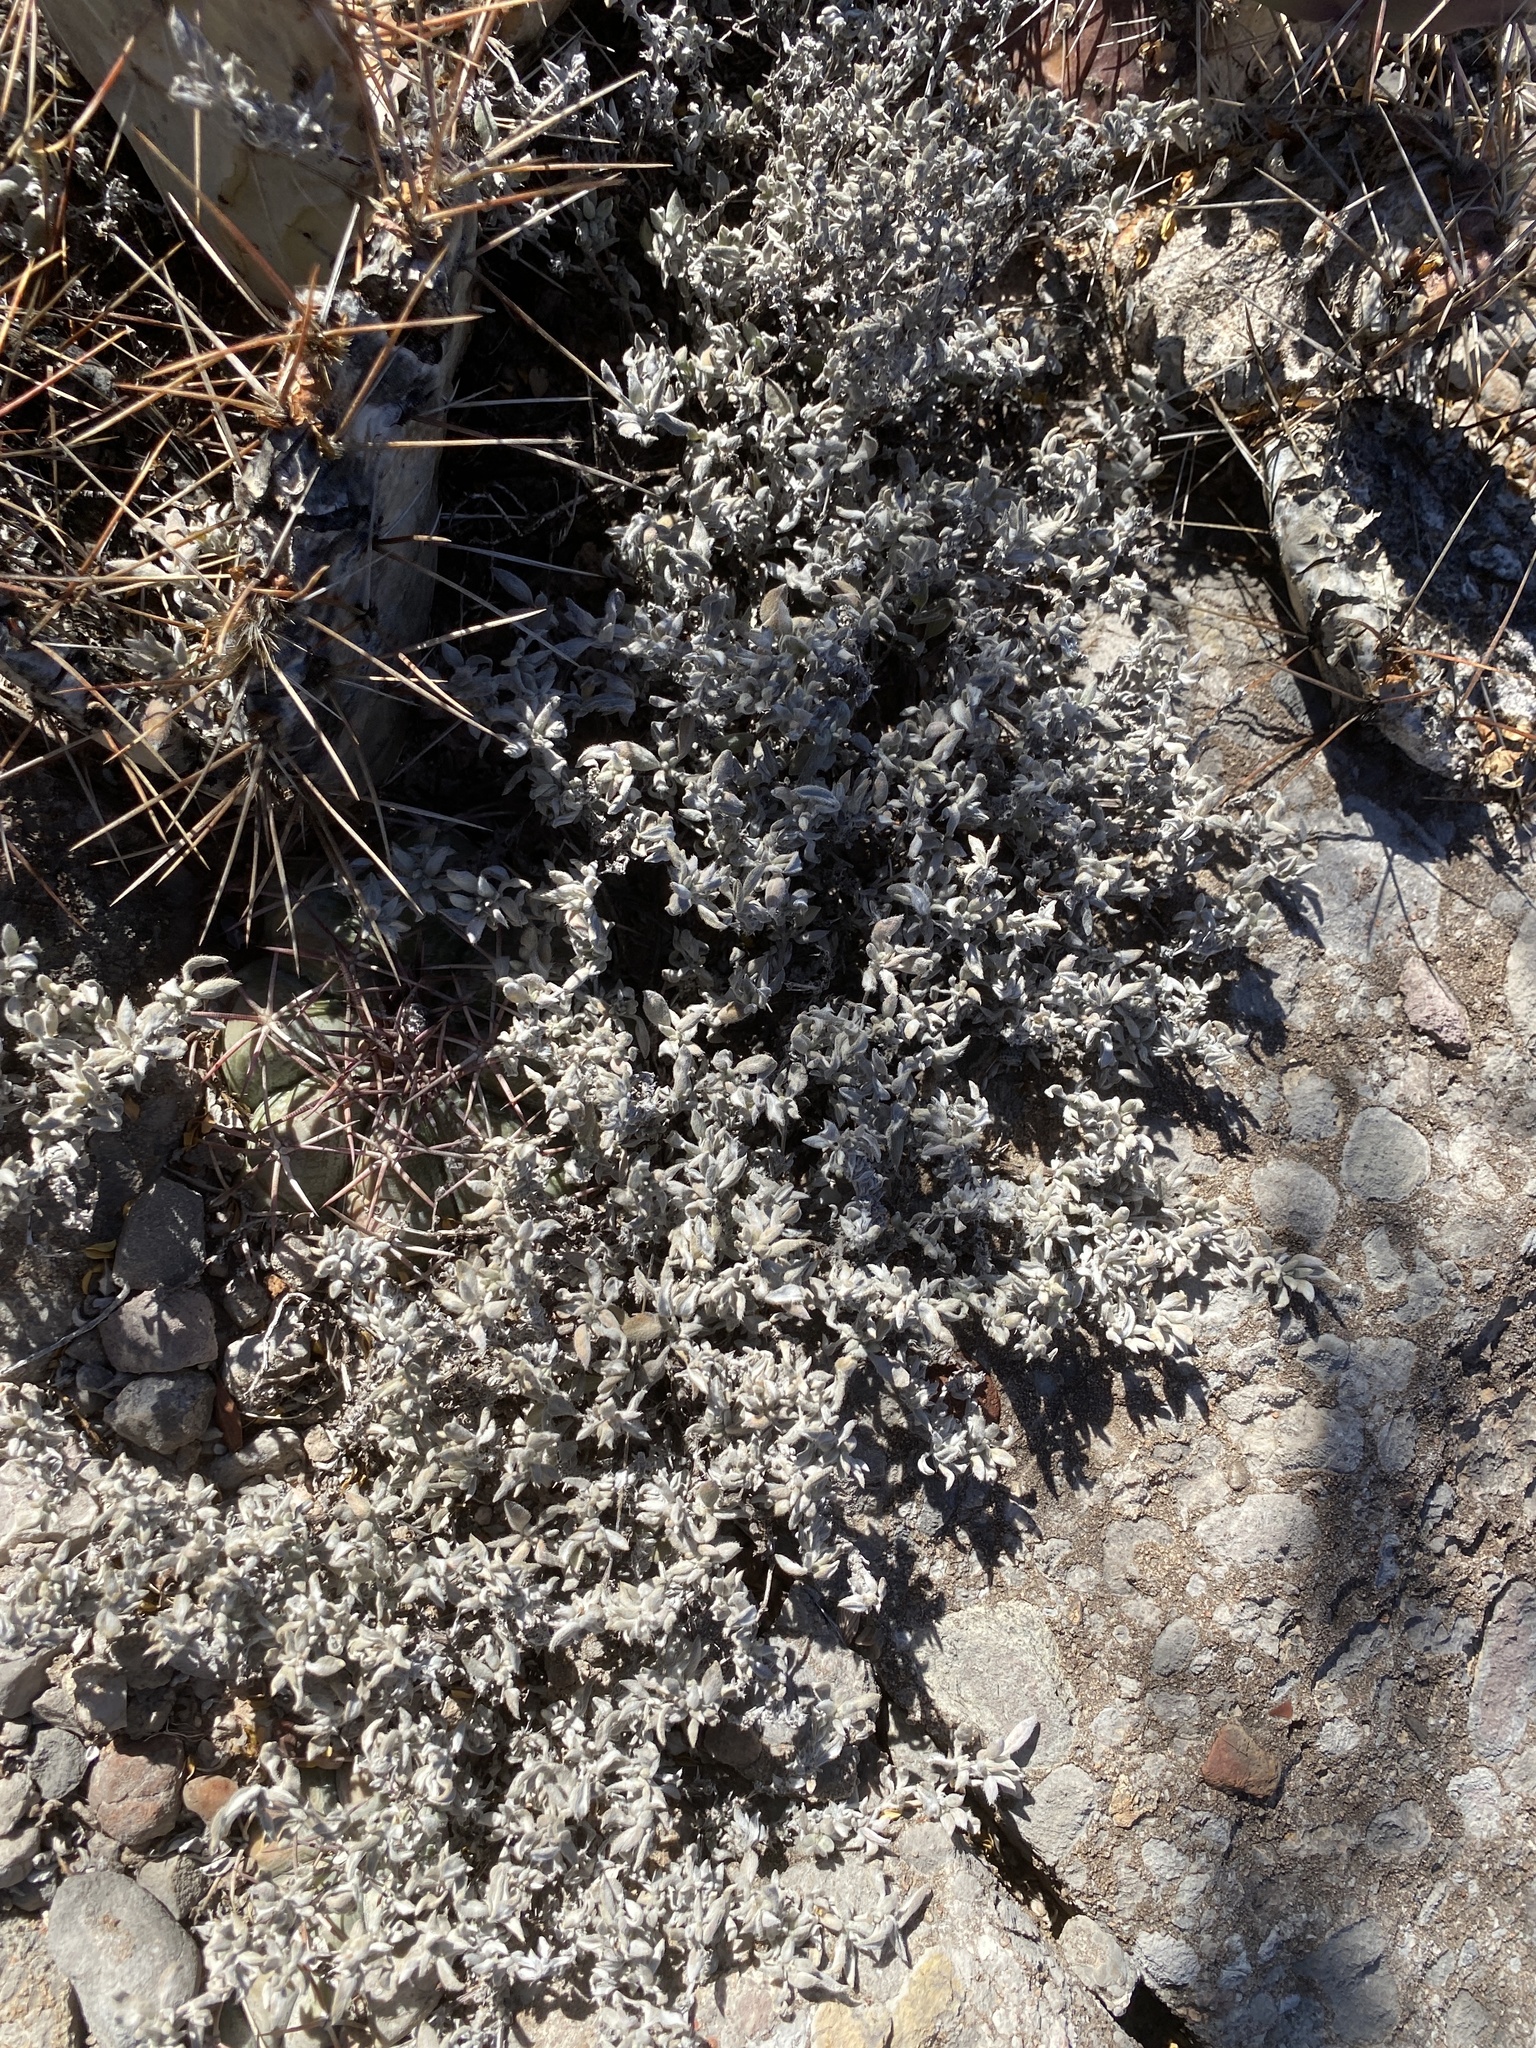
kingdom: Plantae
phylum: Tracheophyta
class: Magnoliopsida
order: Boraginales
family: Ehretiaceae
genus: Tiquilia
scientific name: Tiquilia canescens
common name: Hairy tiquilia
